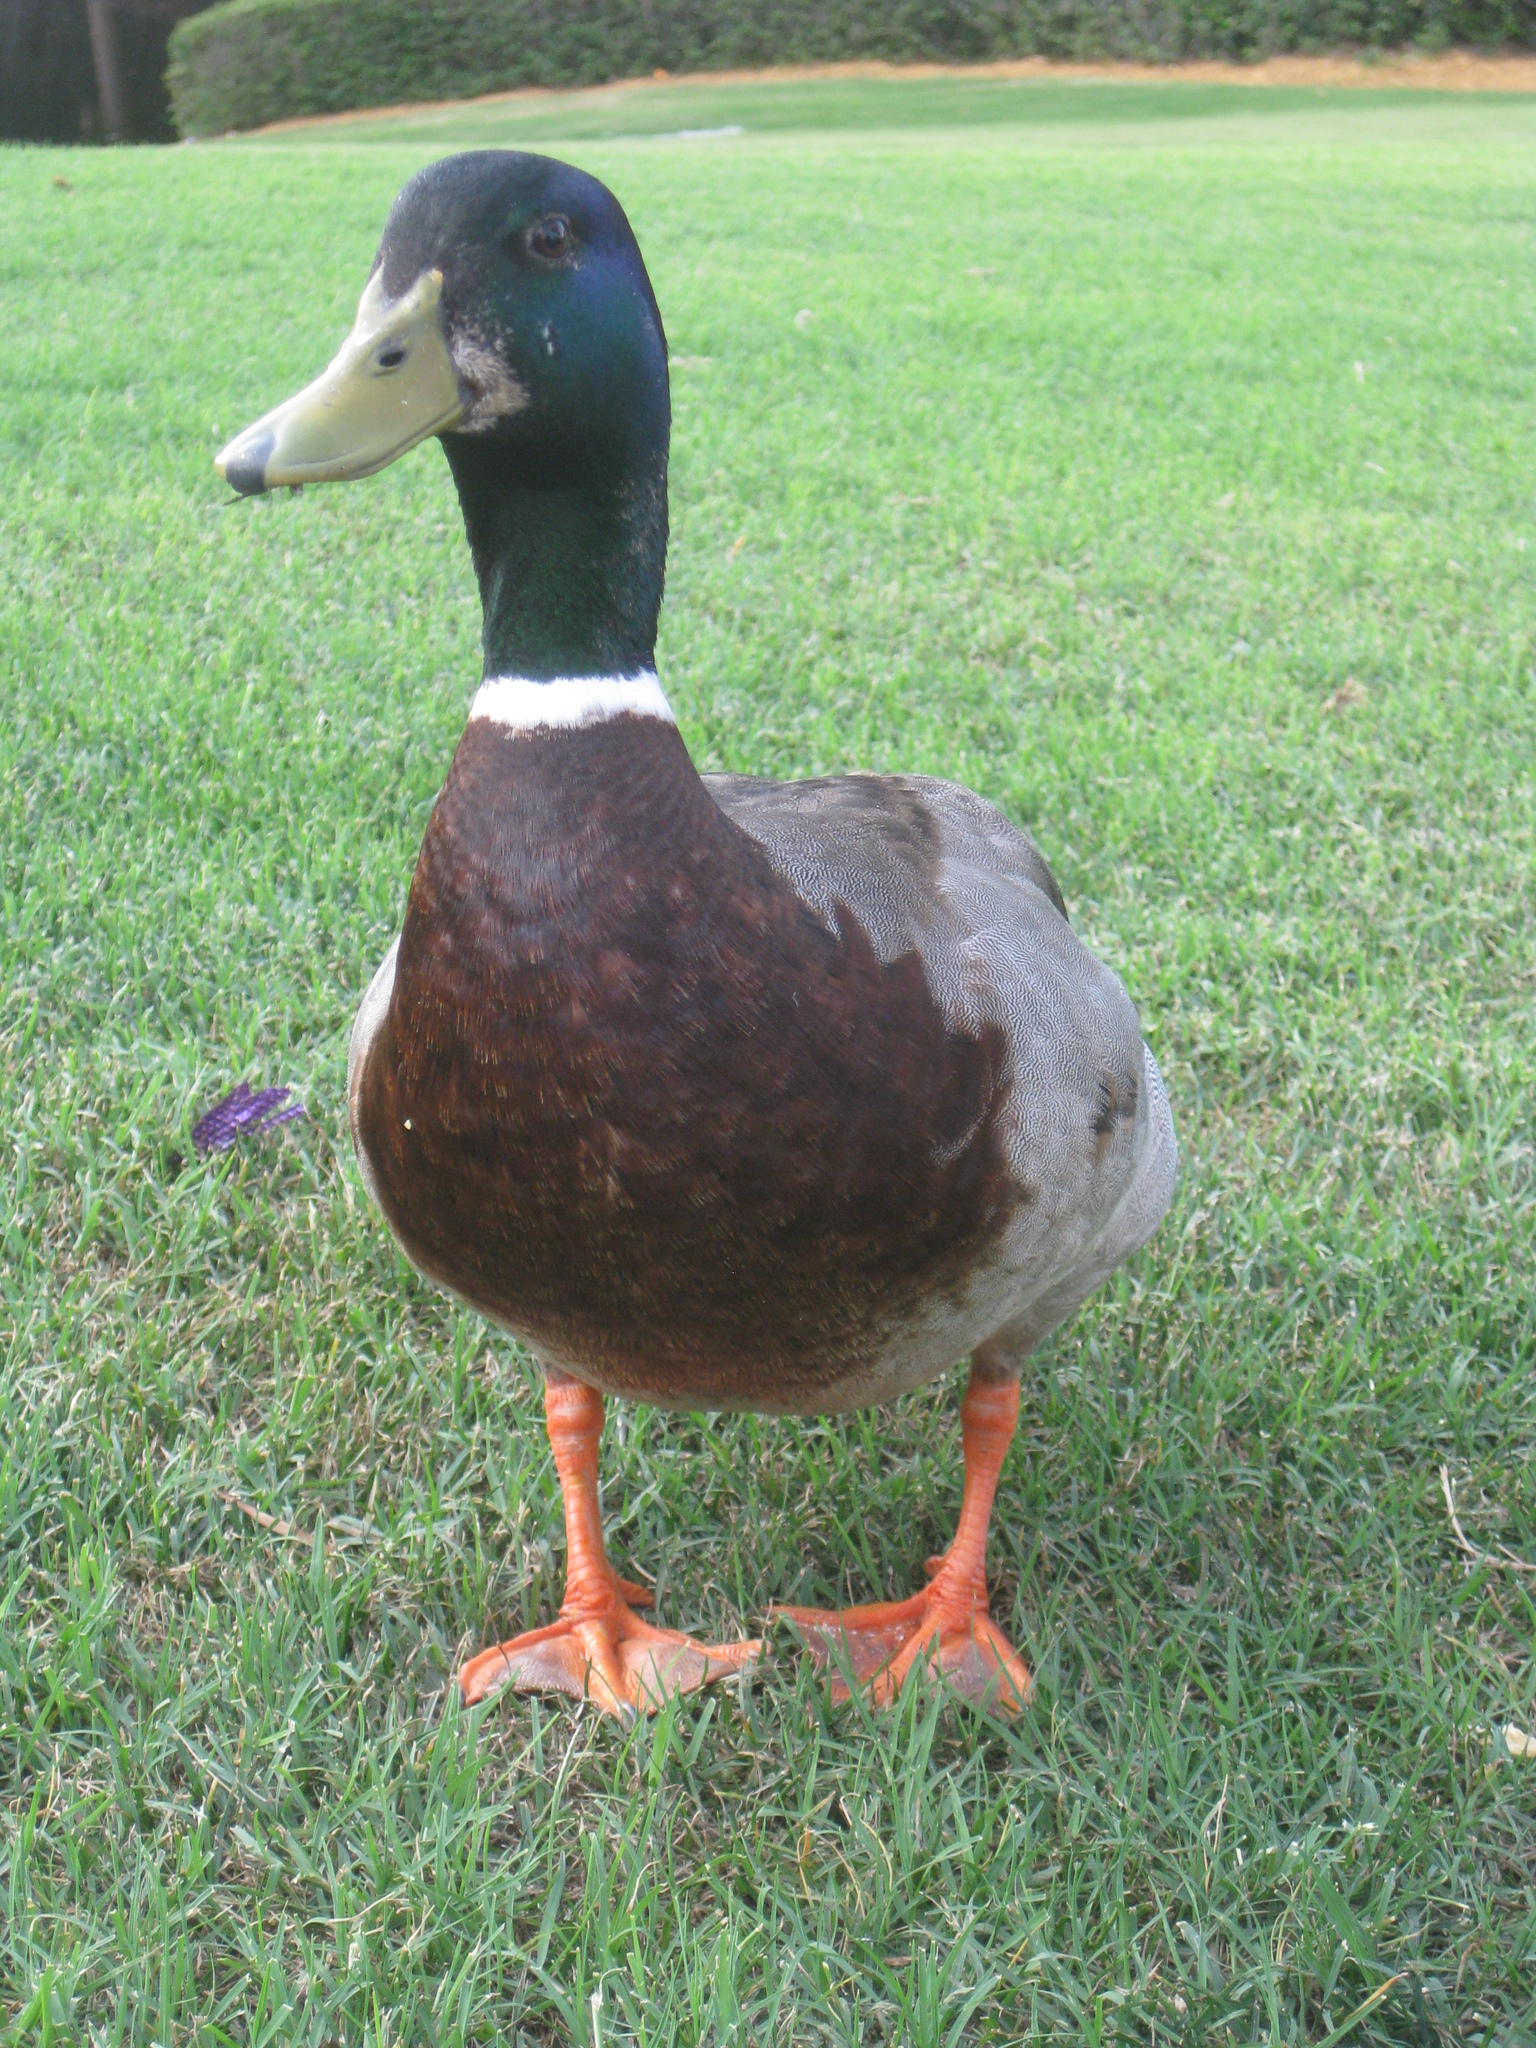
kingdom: Animalia
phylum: Chordata
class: Aves
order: Anseriformes
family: Anatidae
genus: Anas
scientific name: Anas platyrhynchos
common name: Mallard
